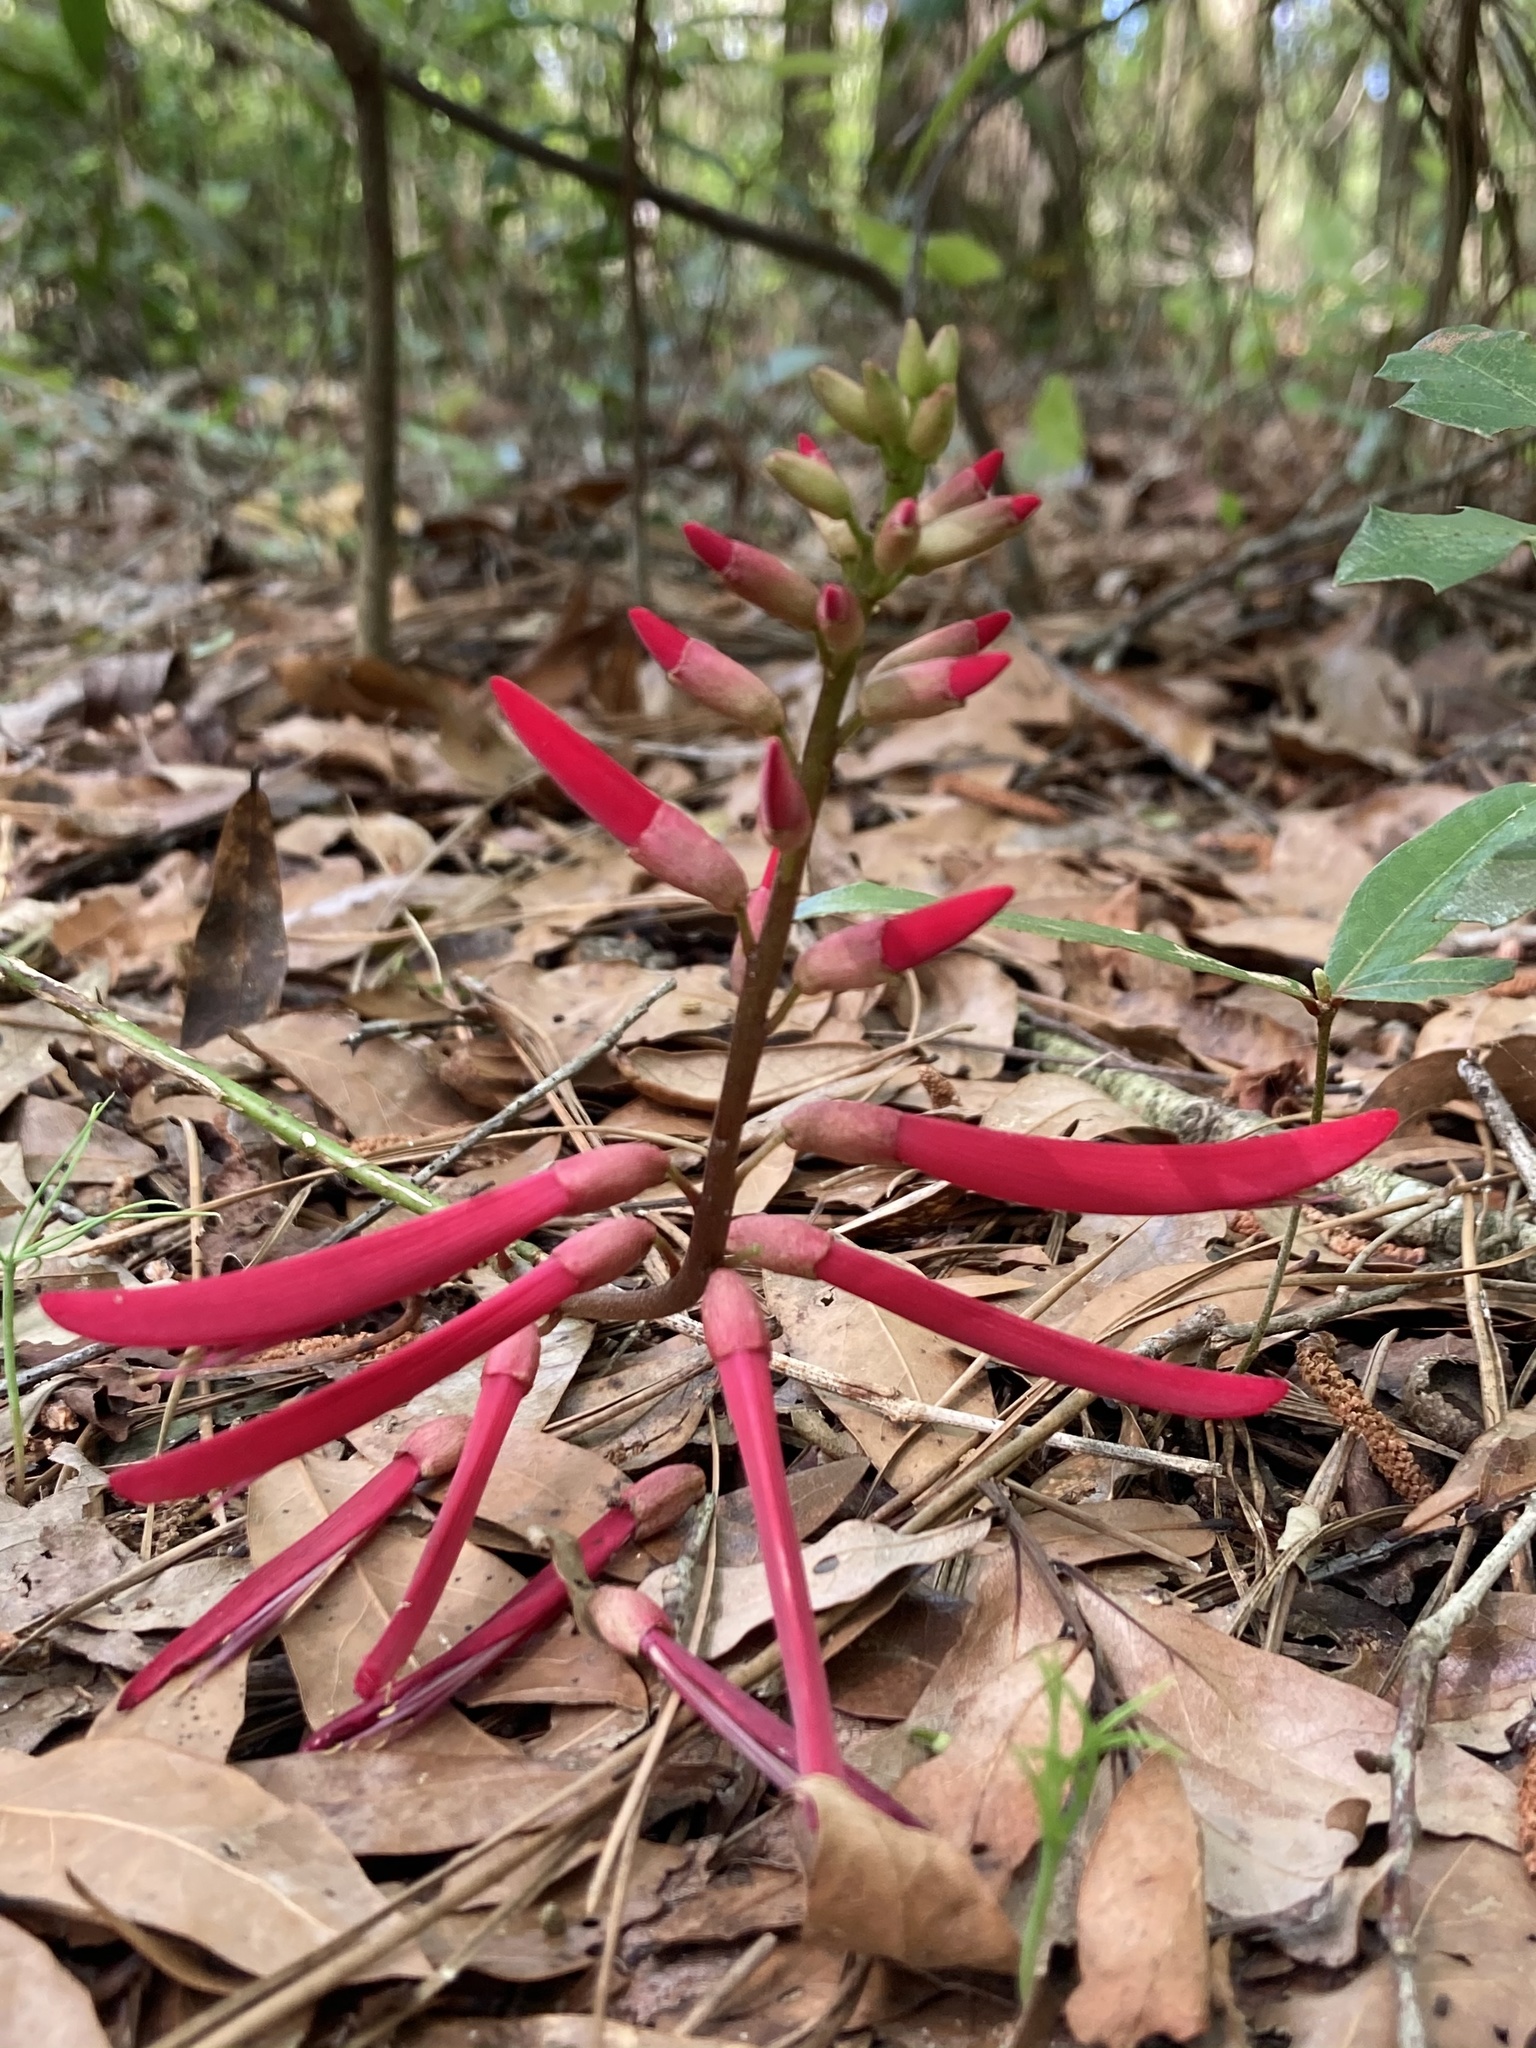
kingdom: Plantae
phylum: Tracheophyta
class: Magnoliopsida
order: Fabales
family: Fabaceae
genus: Erythrina
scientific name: Erythrina herbacea
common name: Coral-bean
